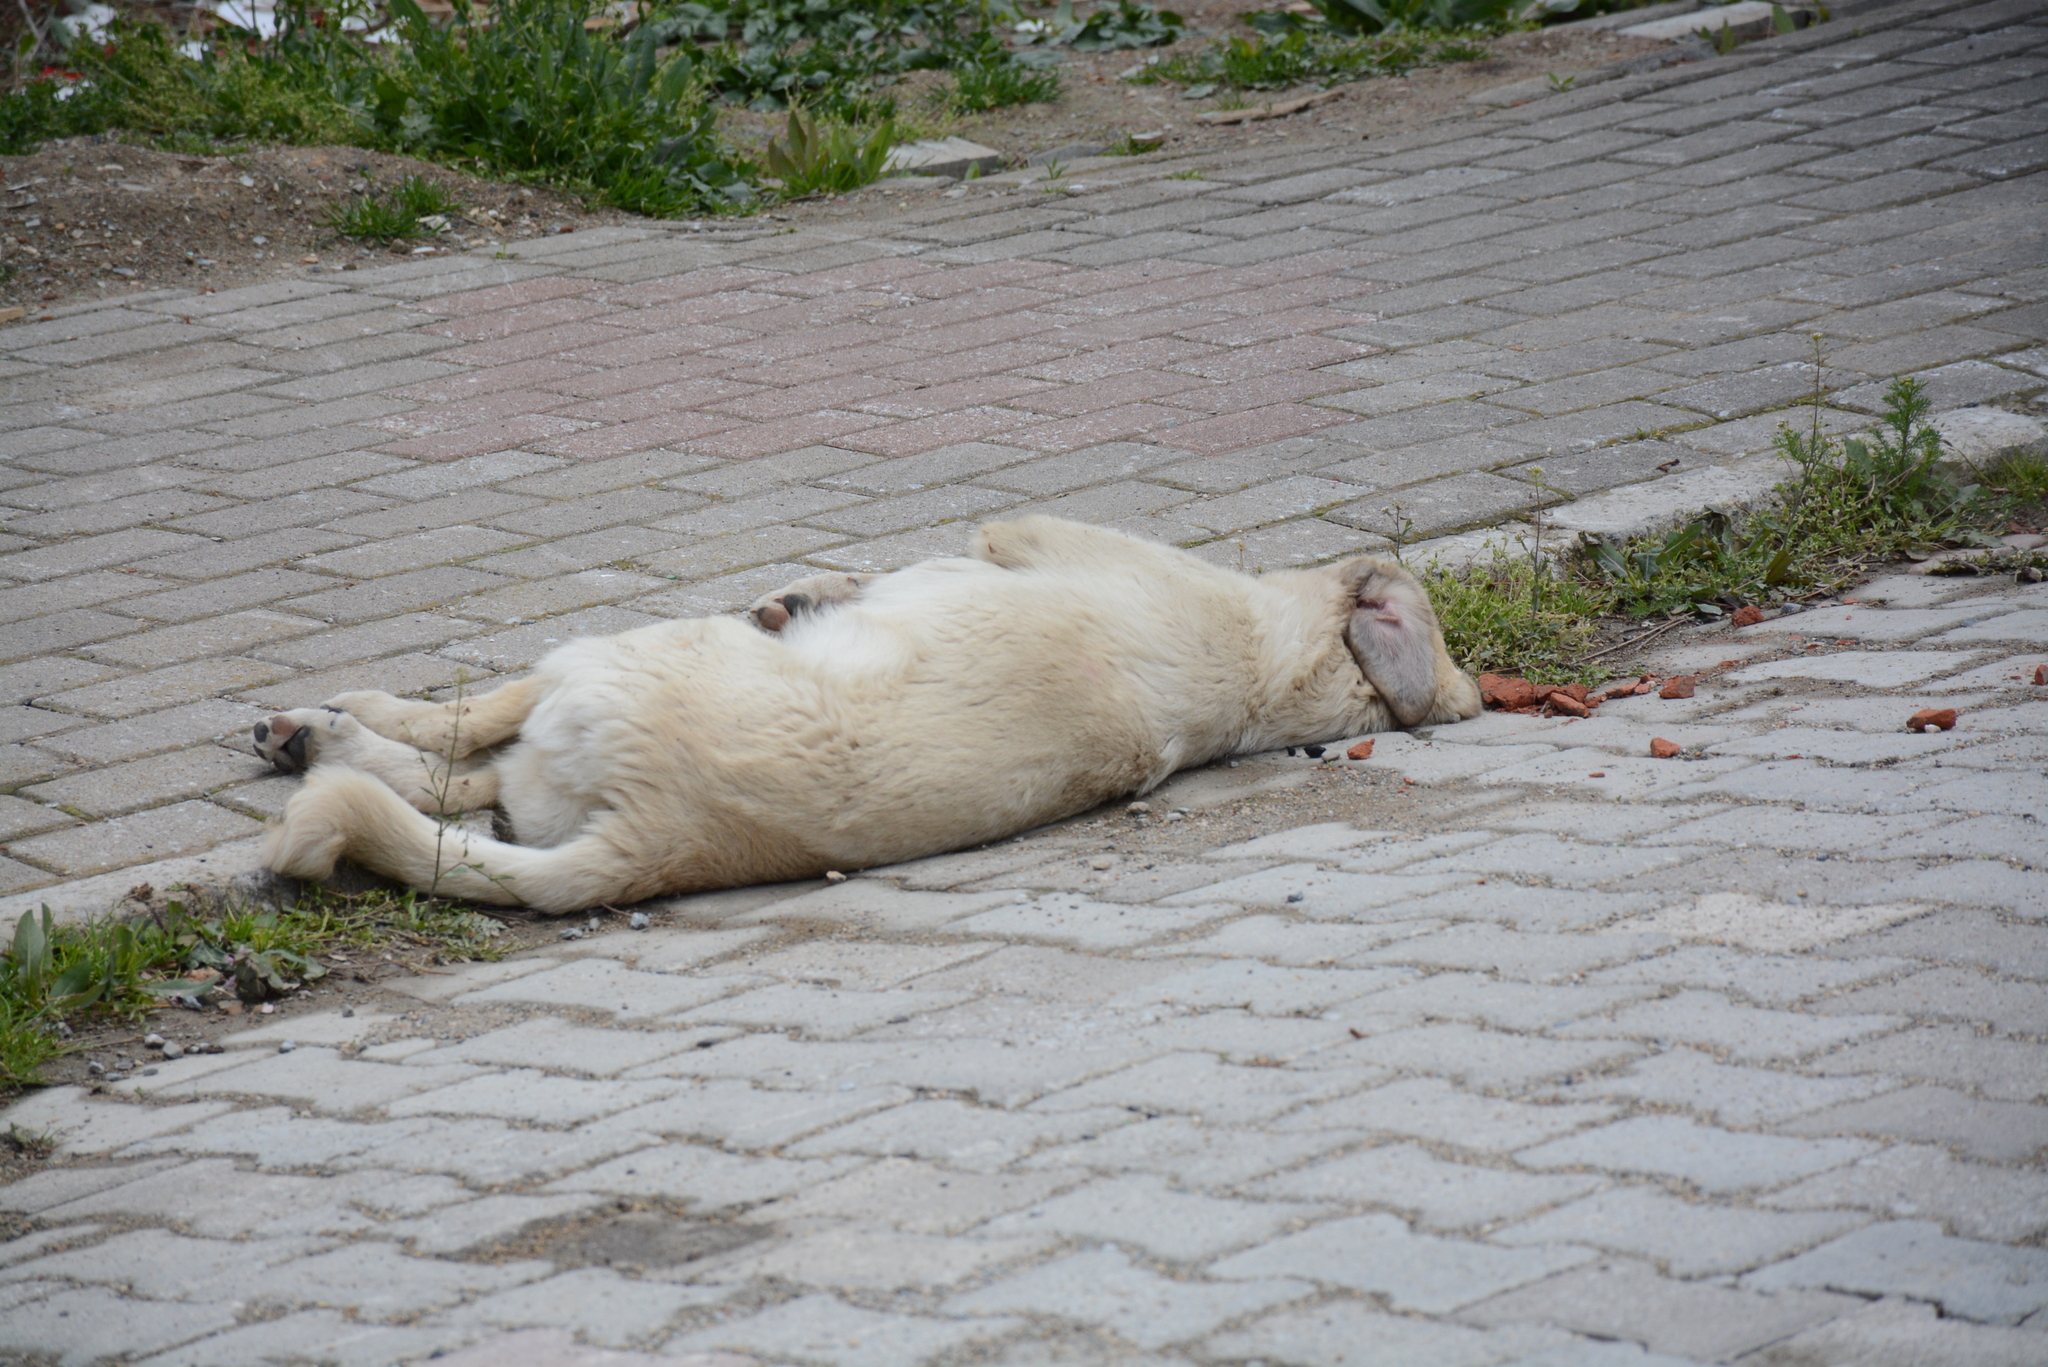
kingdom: Animalia
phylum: Chordata
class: Mammalia
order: Carnivora
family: Canidae
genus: Canis
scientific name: Canis lupus
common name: Gray wolf
